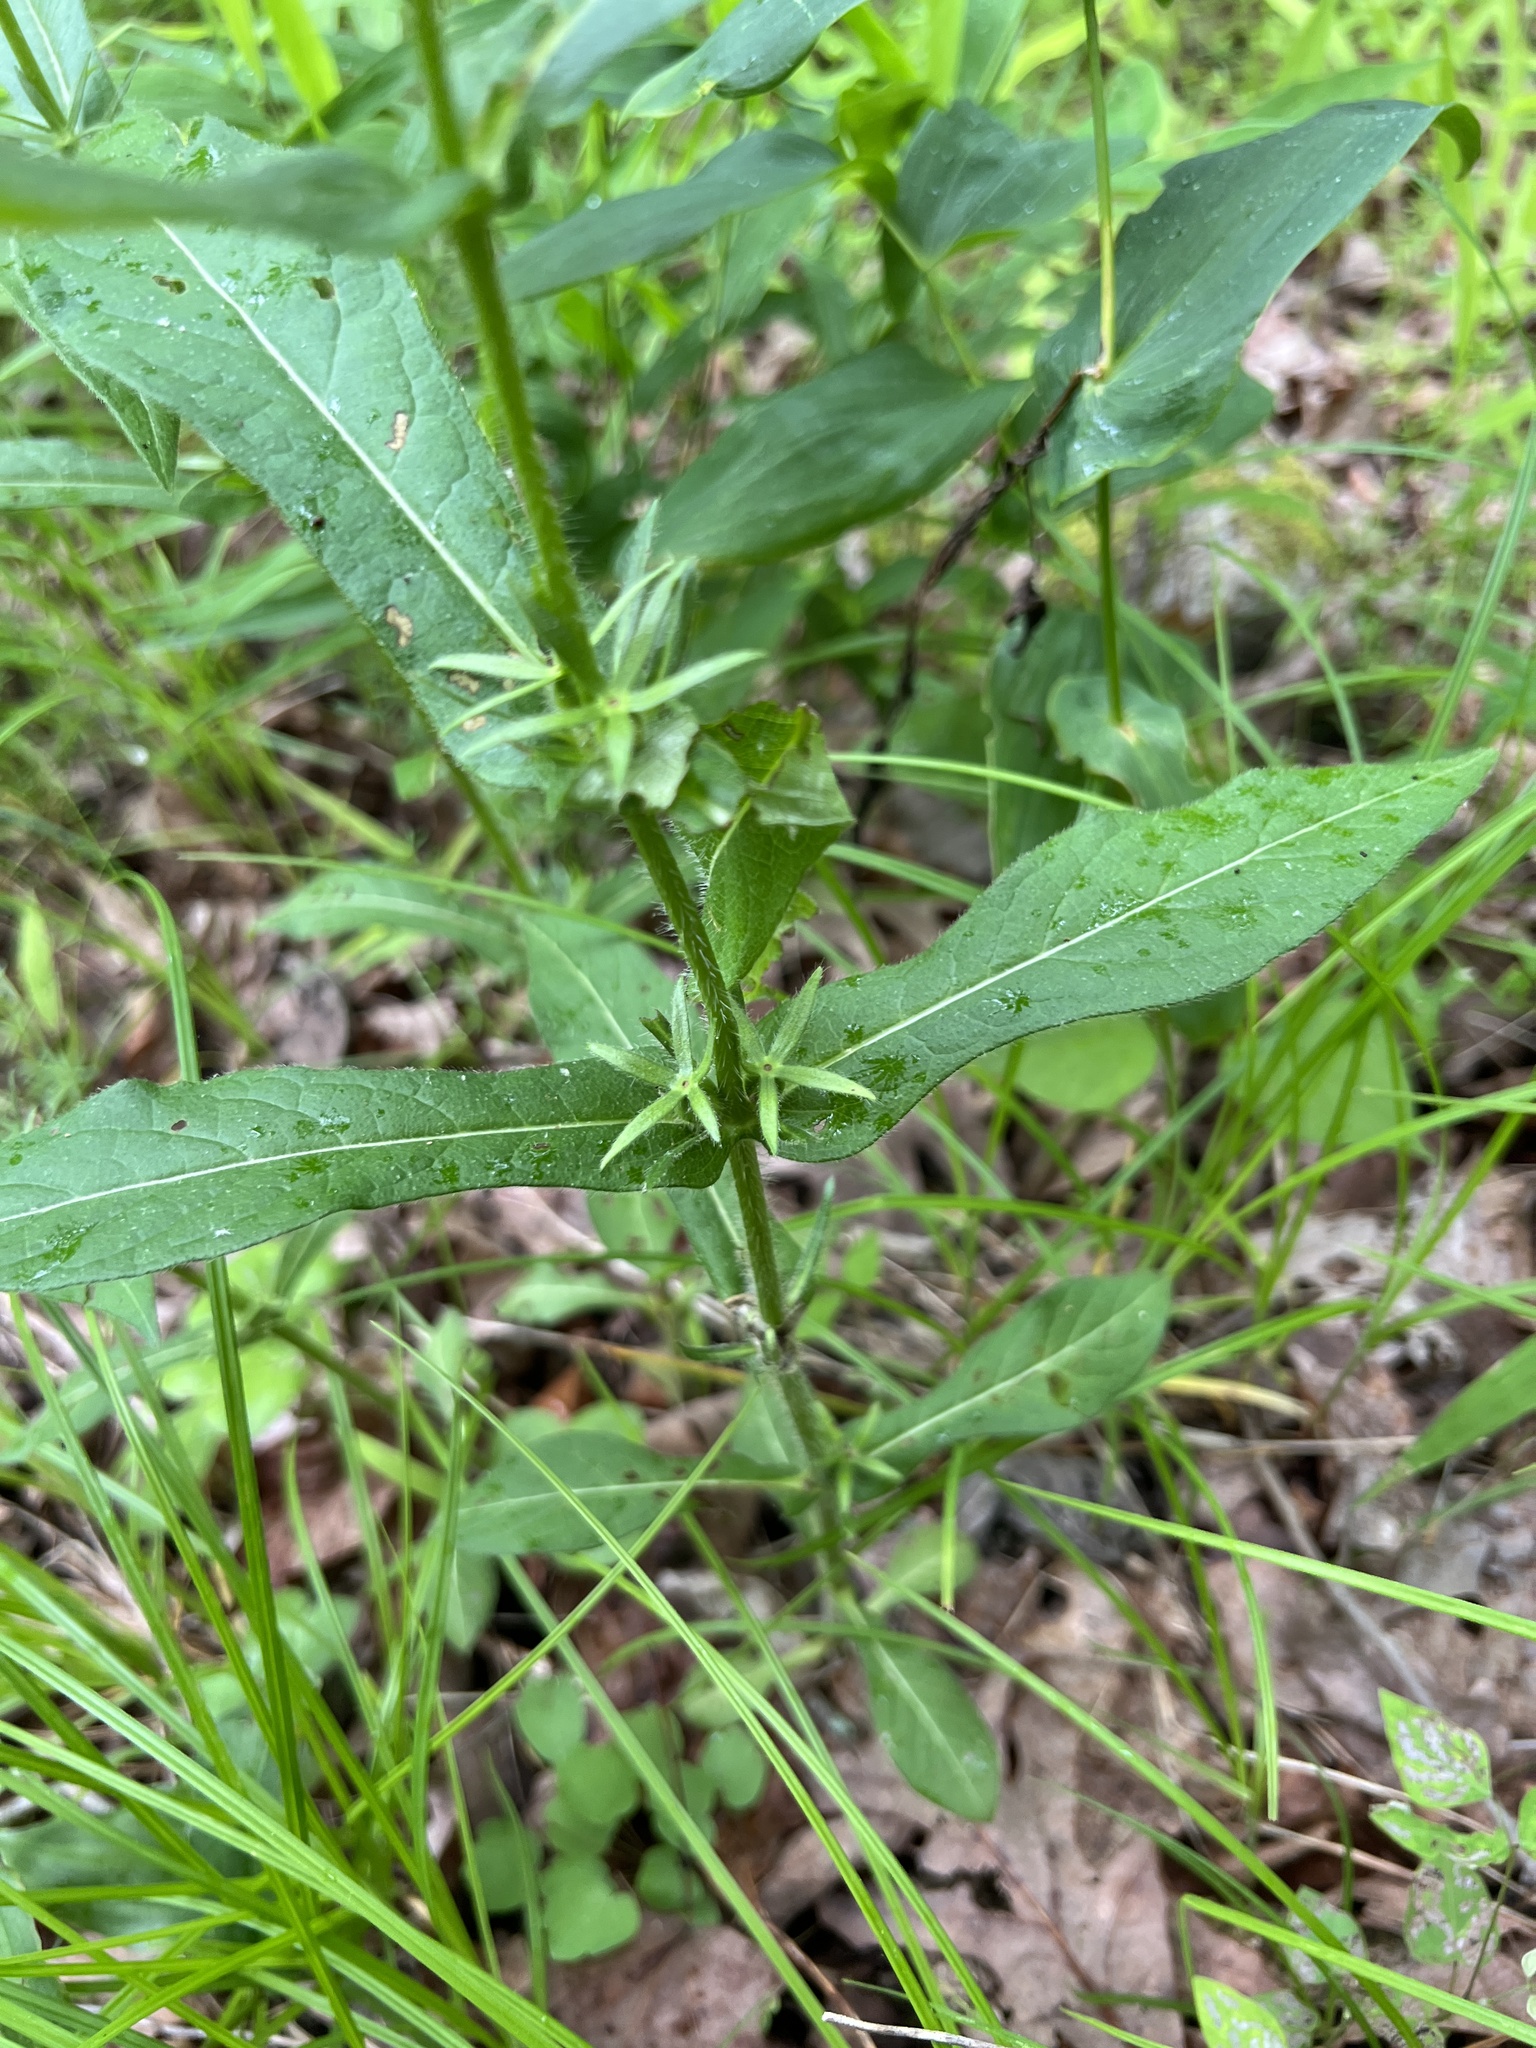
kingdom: Plantae
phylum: Tracheophyta
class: Magnoliopsida
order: Dipsacales
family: Caprifoliaceae
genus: Triosteum
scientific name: Triosteum angustifolium
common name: Narrow-leaved horse-gentian
